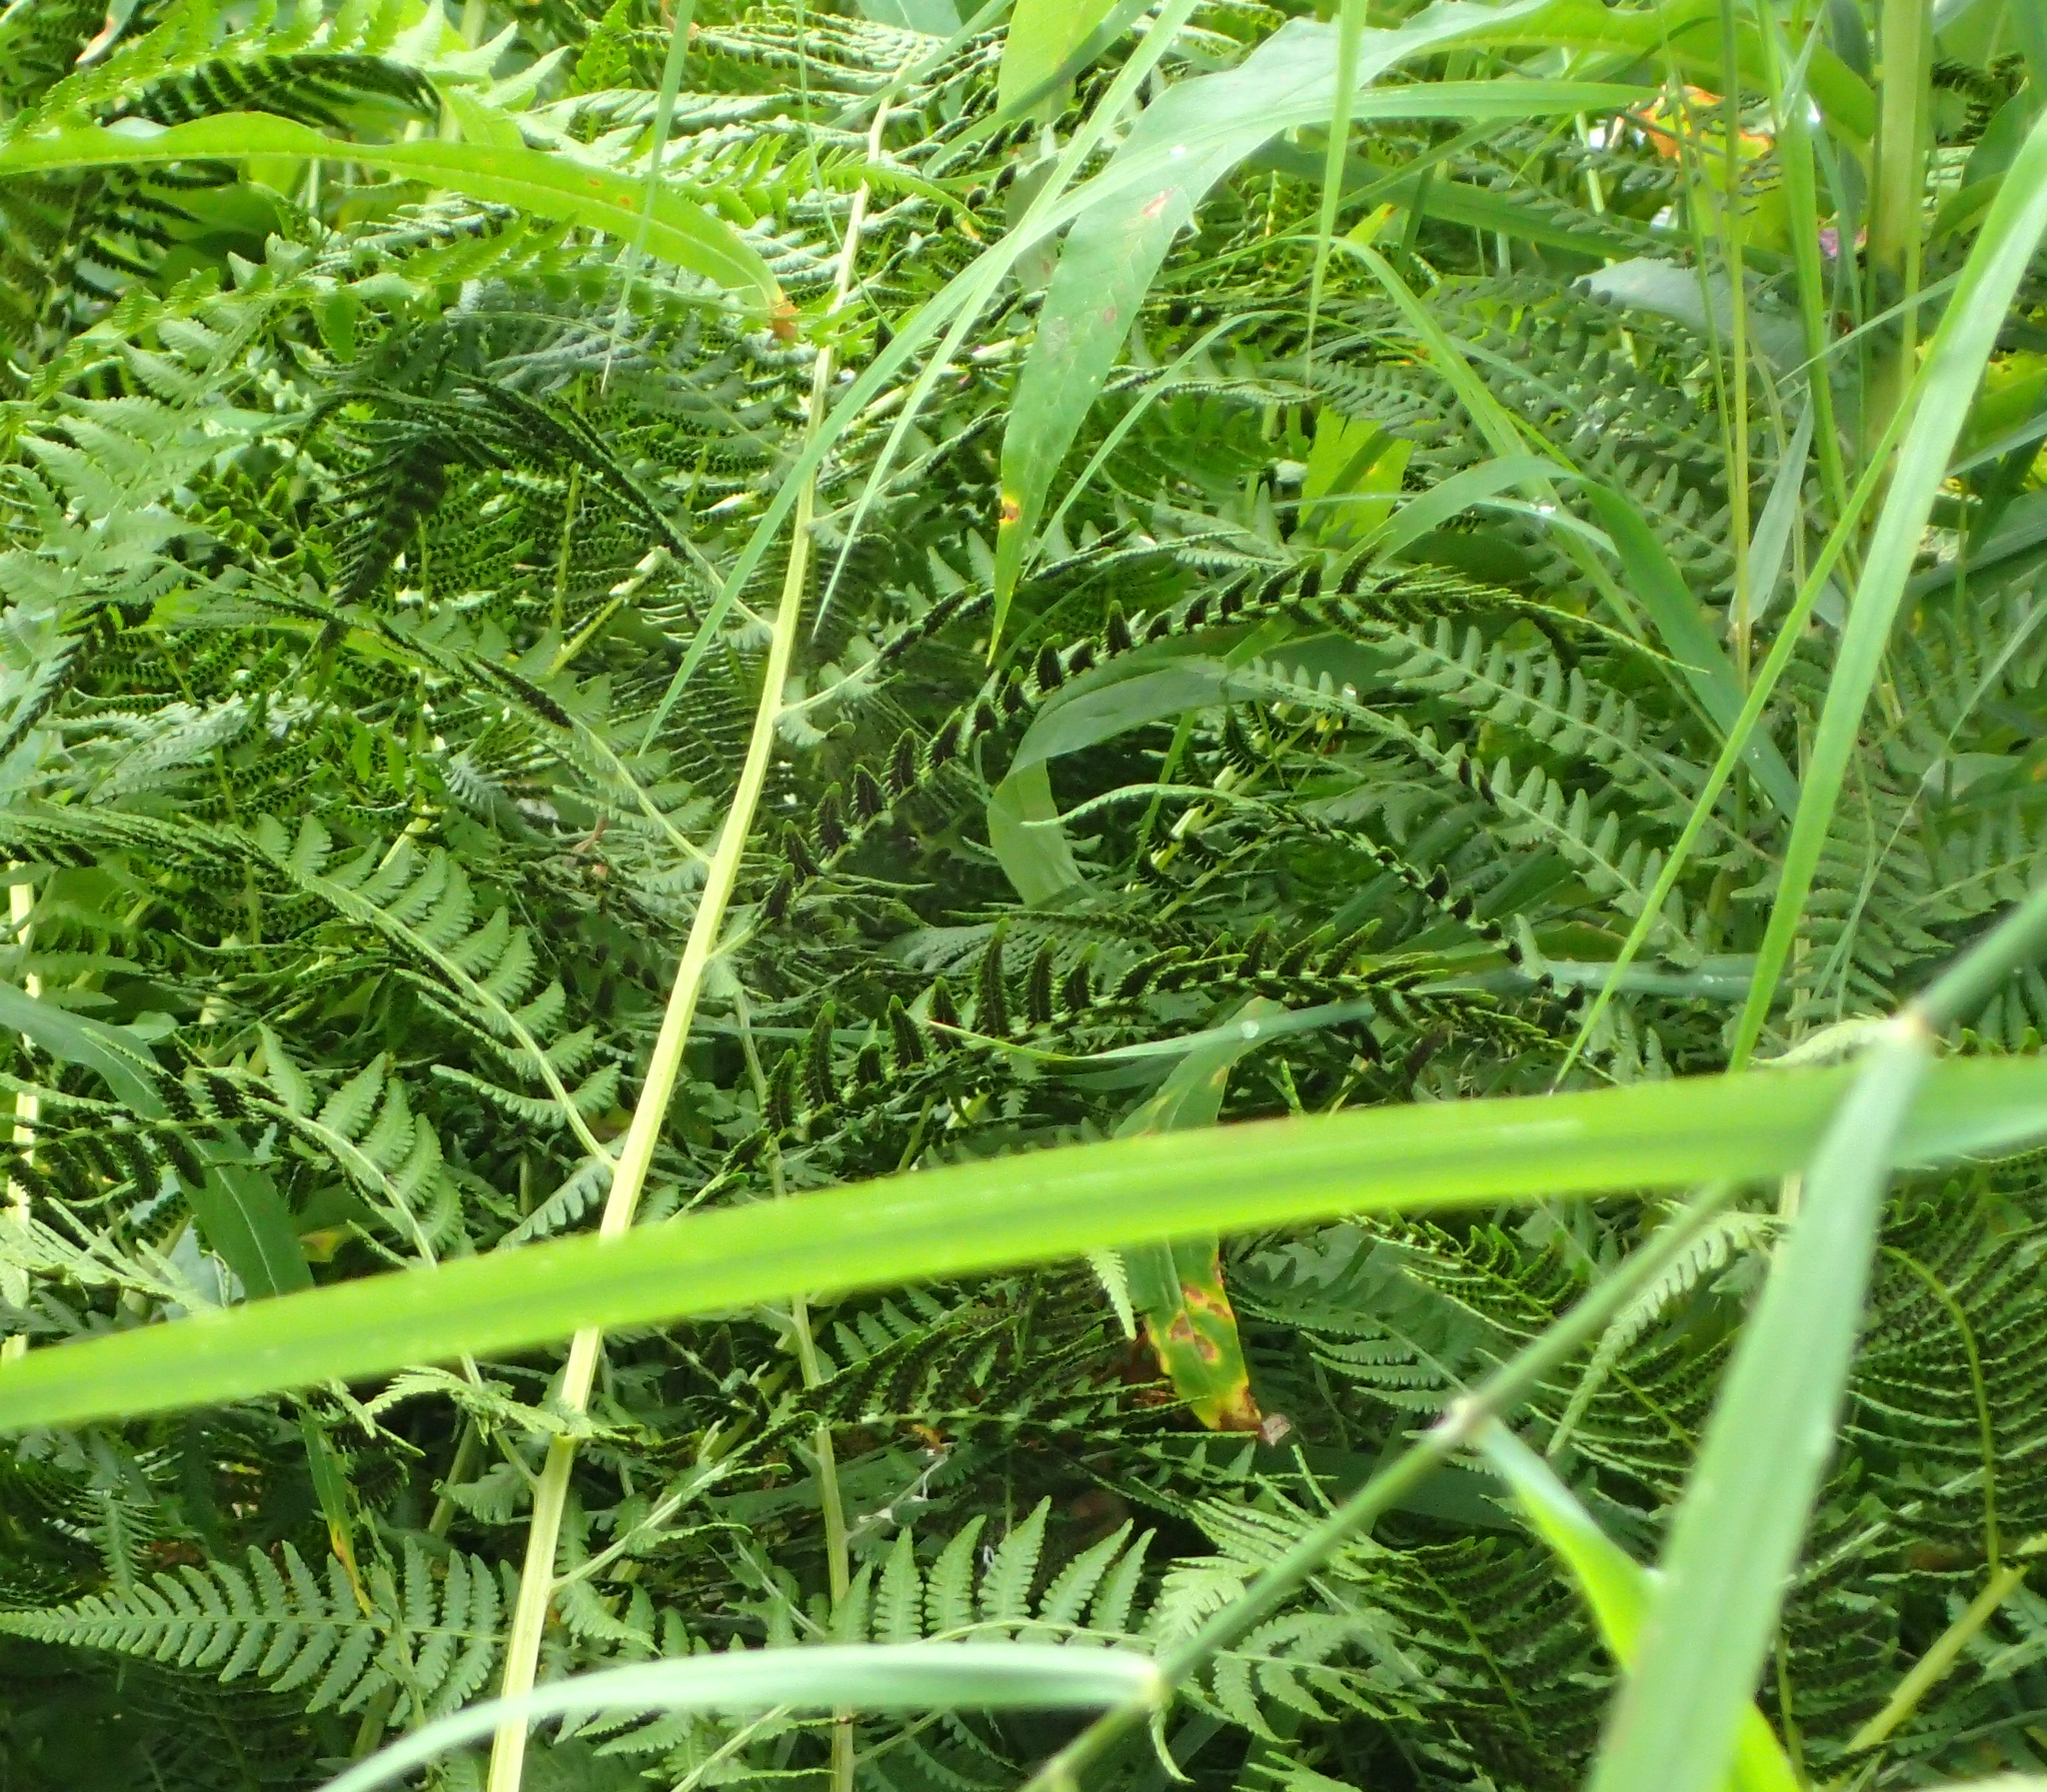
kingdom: Plantae
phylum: Tracheophyta
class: Polypodiopsida
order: Polypodiales
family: Athyriaceae
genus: Athyrium
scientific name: Athyrium filix-femina
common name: Lady fern
